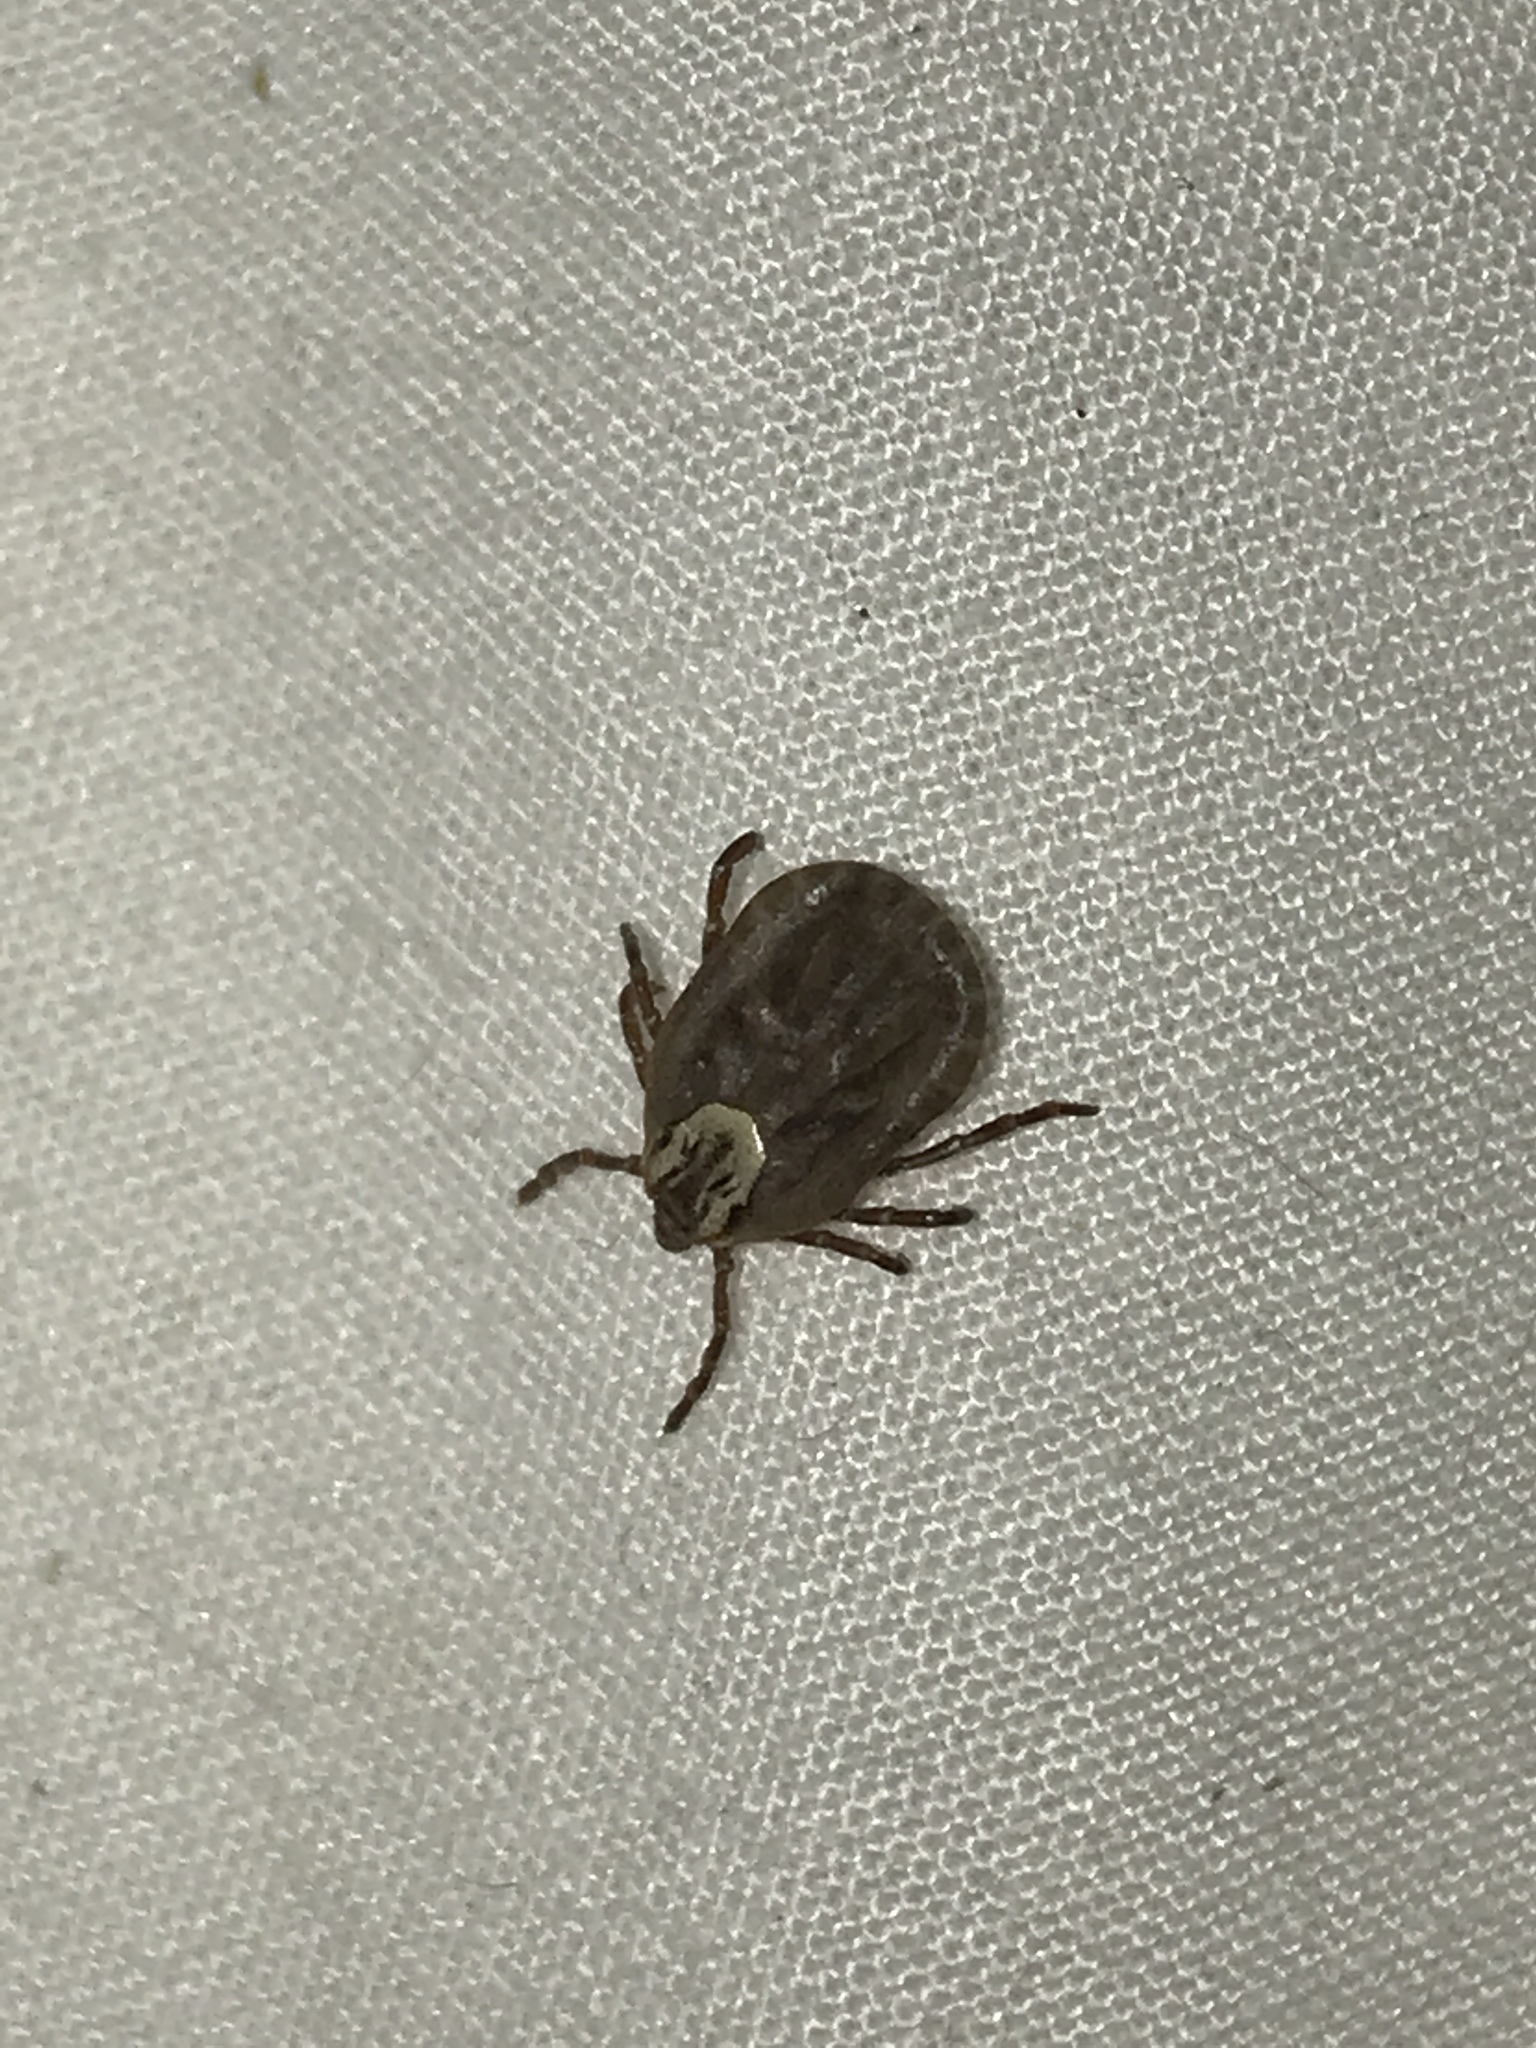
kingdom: Animalia
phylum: Arthropoda
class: Arachnida
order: Ixodida
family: Ixodidae
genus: Dermacentor
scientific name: Dermacentor andersoni
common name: Rocky mountain wood tick
